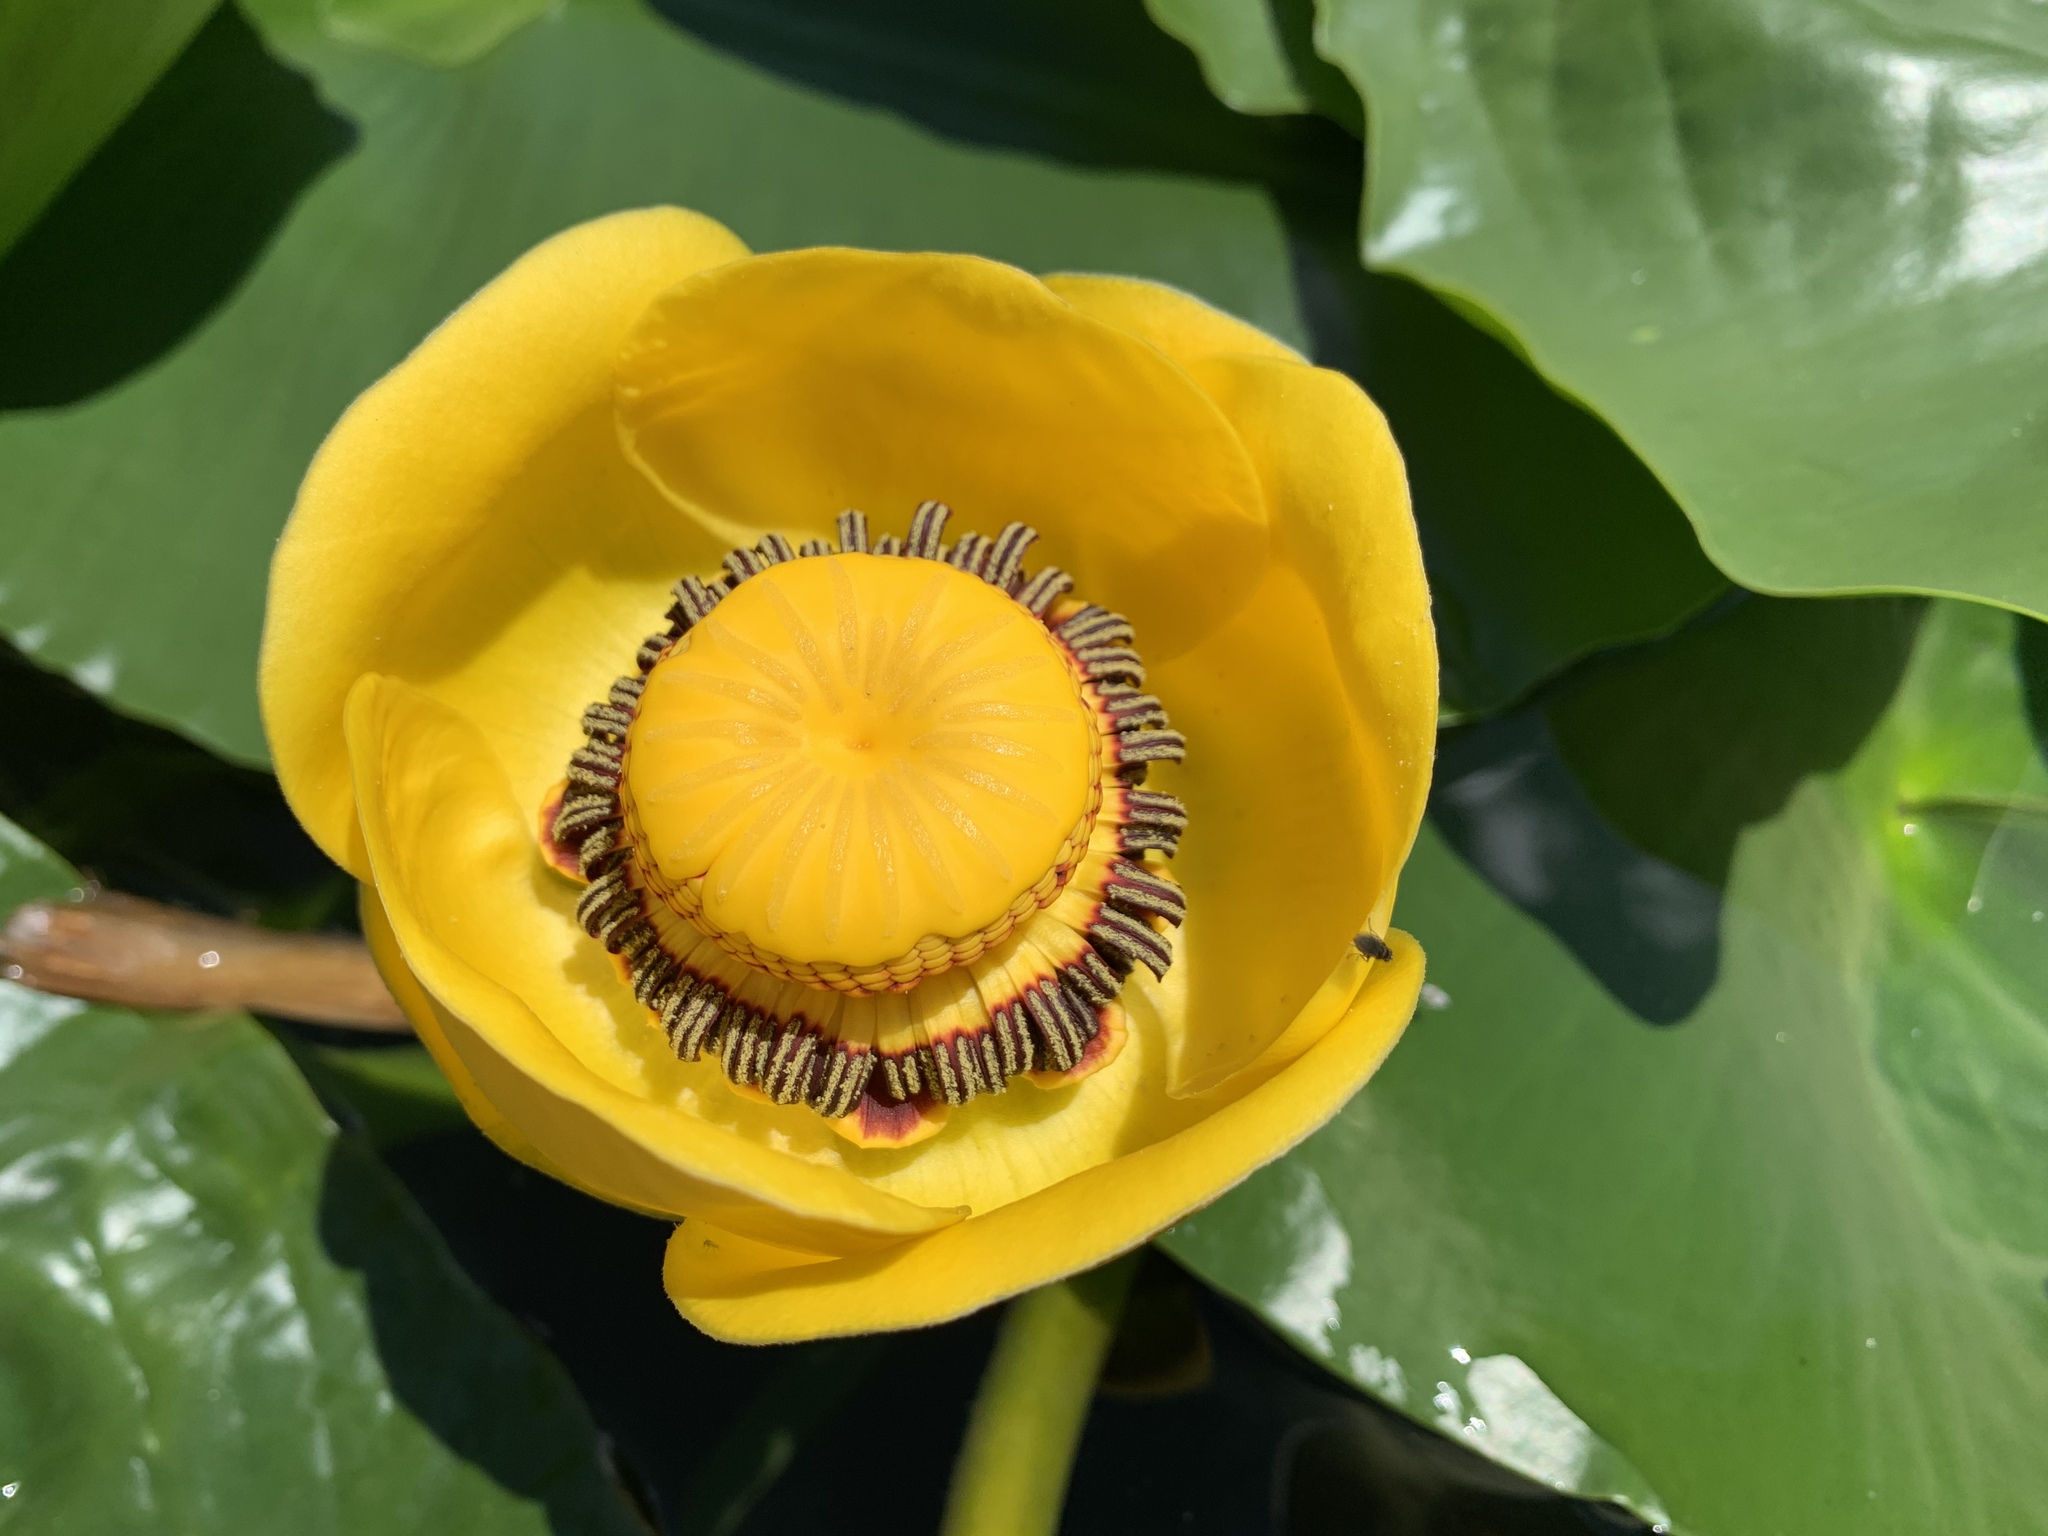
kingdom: Plantae
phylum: Tracheophyta
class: Magnoliopsida
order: Nymphaeales
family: Nymphaeaceae
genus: Nuphar
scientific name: Nuphar polysepala
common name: Rocky mountain cow-lily
